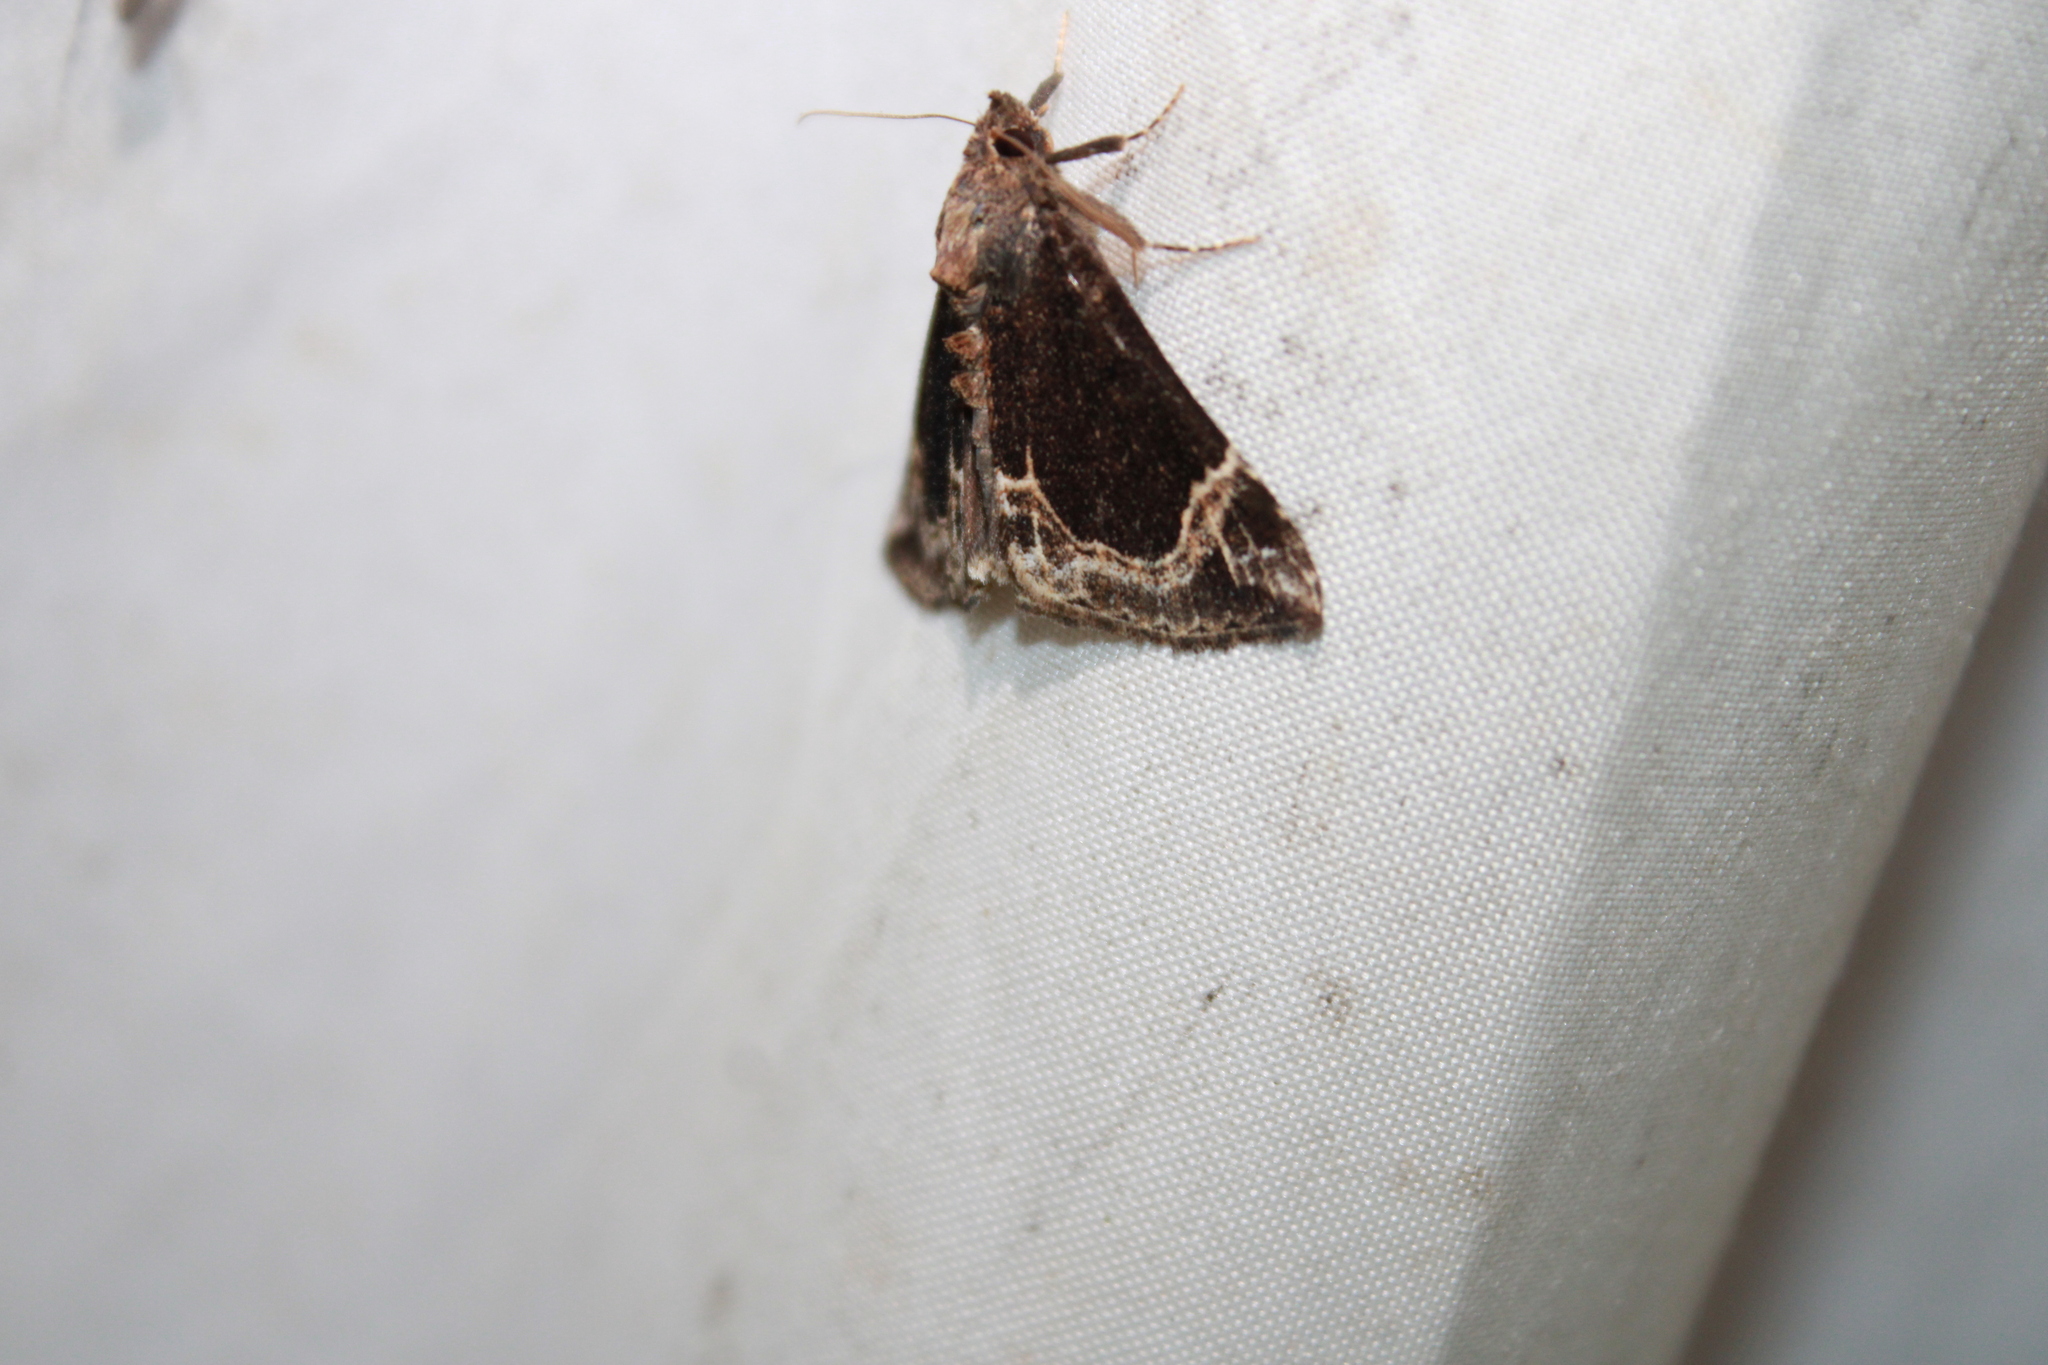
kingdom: Animalia
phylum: Arthropoda
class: Insecta
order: Lepidoptera
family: Erebidae
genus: Hypena
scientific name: Hypena abalienalis
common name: White-lined snout
